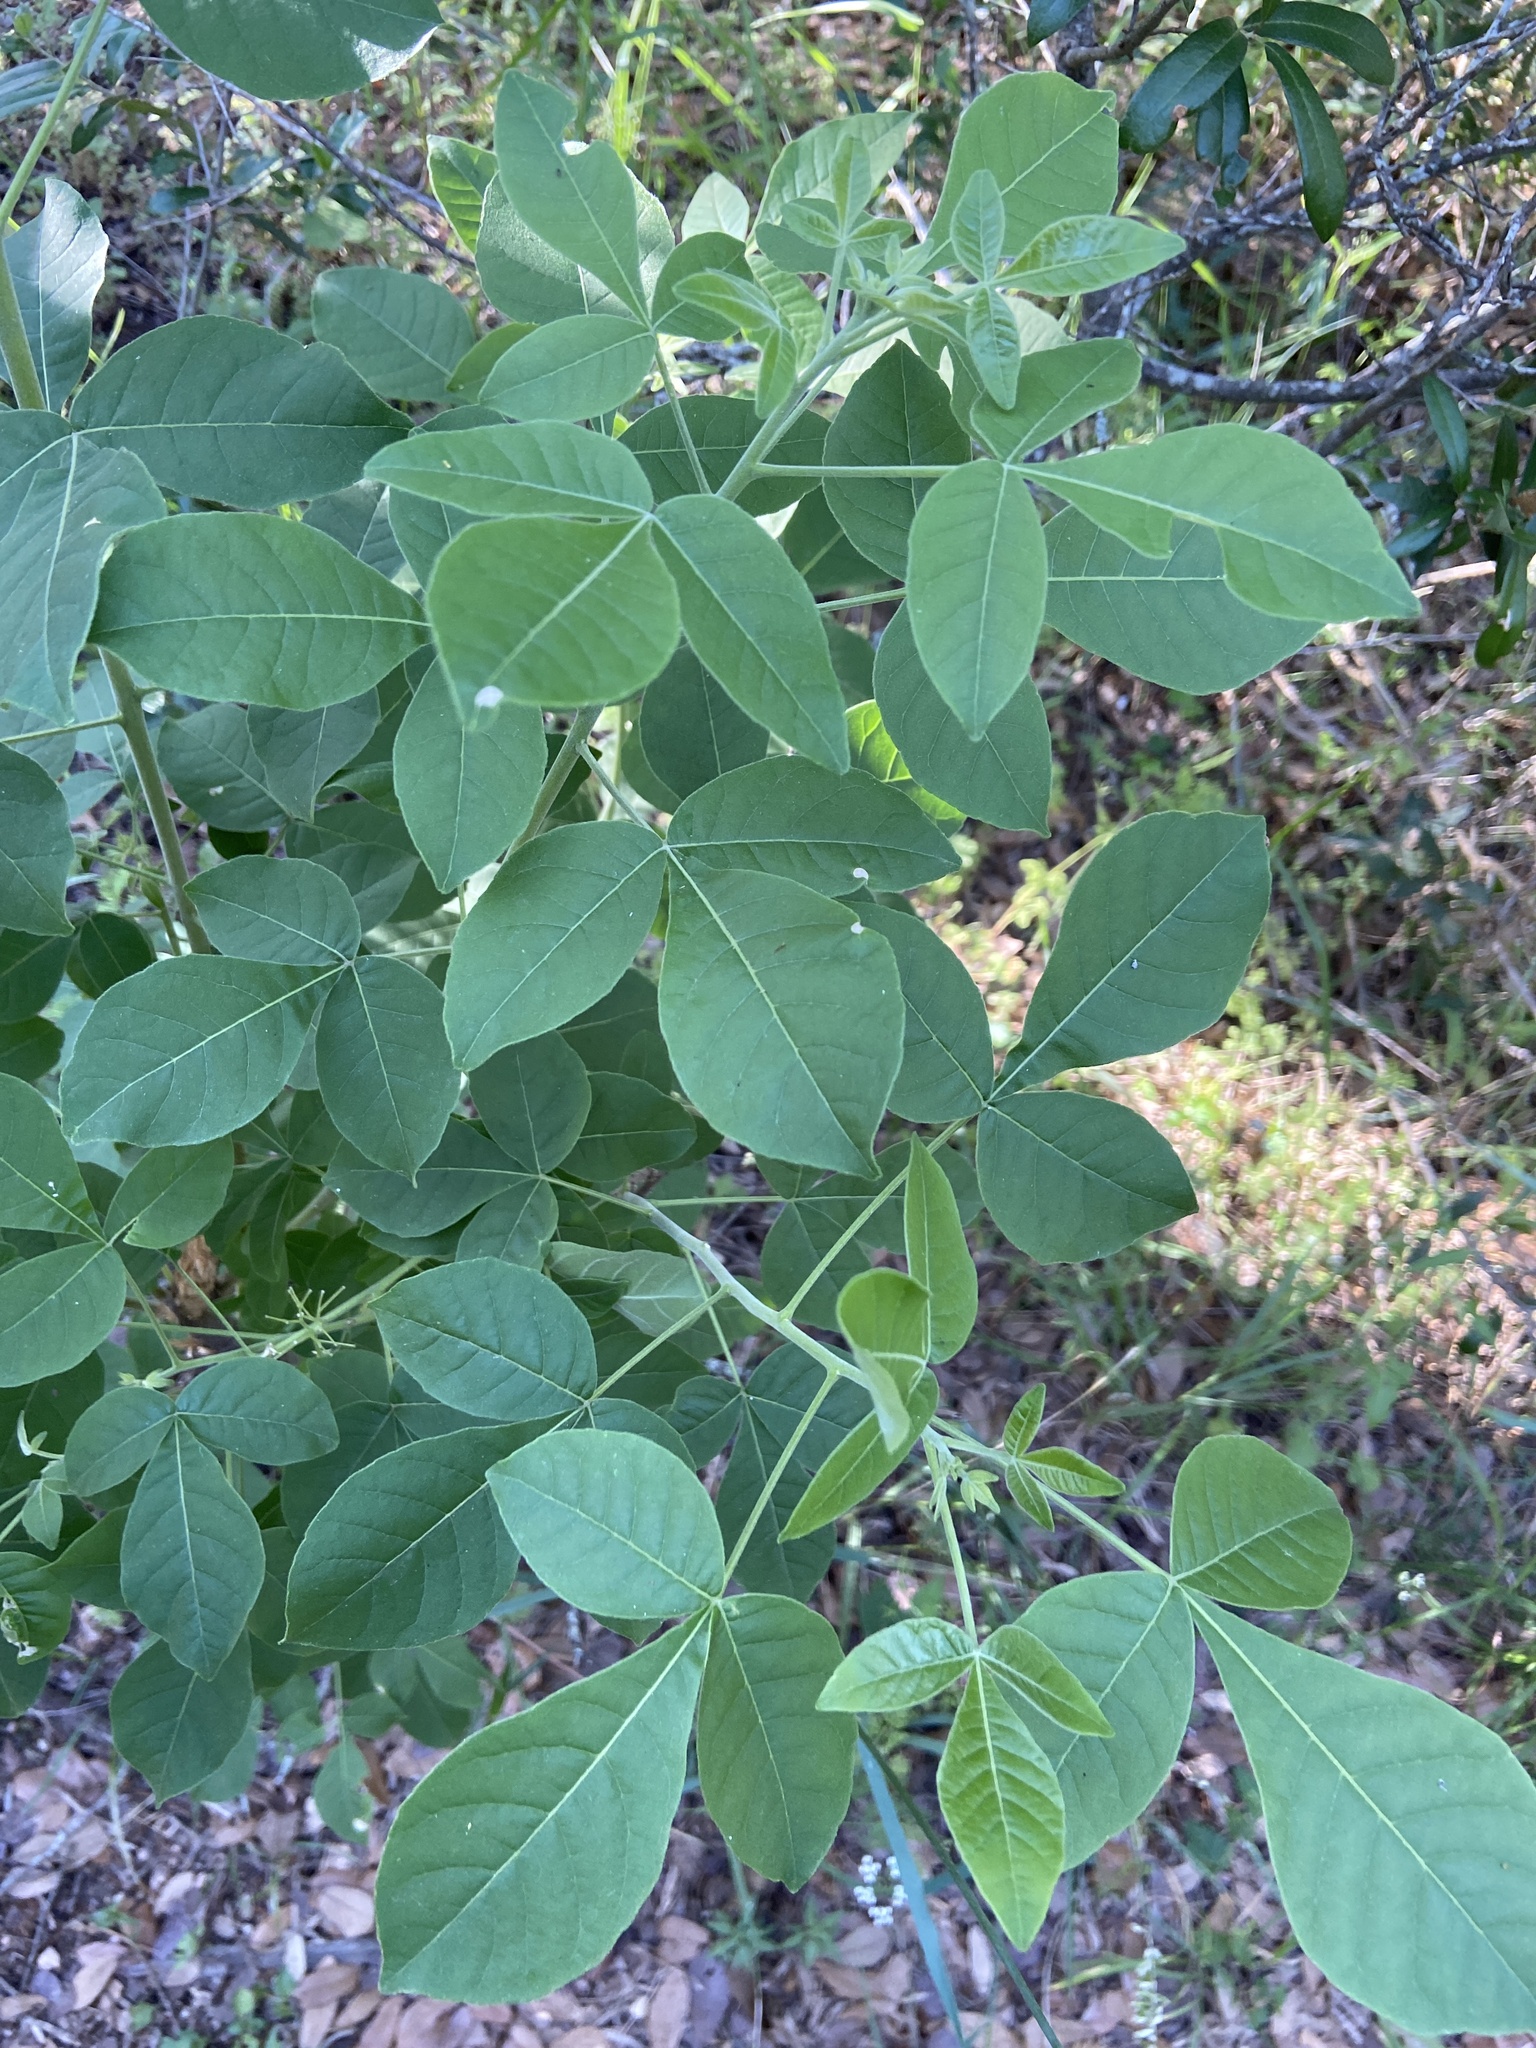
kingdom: Plantae
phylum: Tracheophyta
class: Magnoliopsida
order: Sapindales
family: Rutaceae
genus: Ptelea
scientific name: Ptelea trifoliata
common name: Common hop-tree
